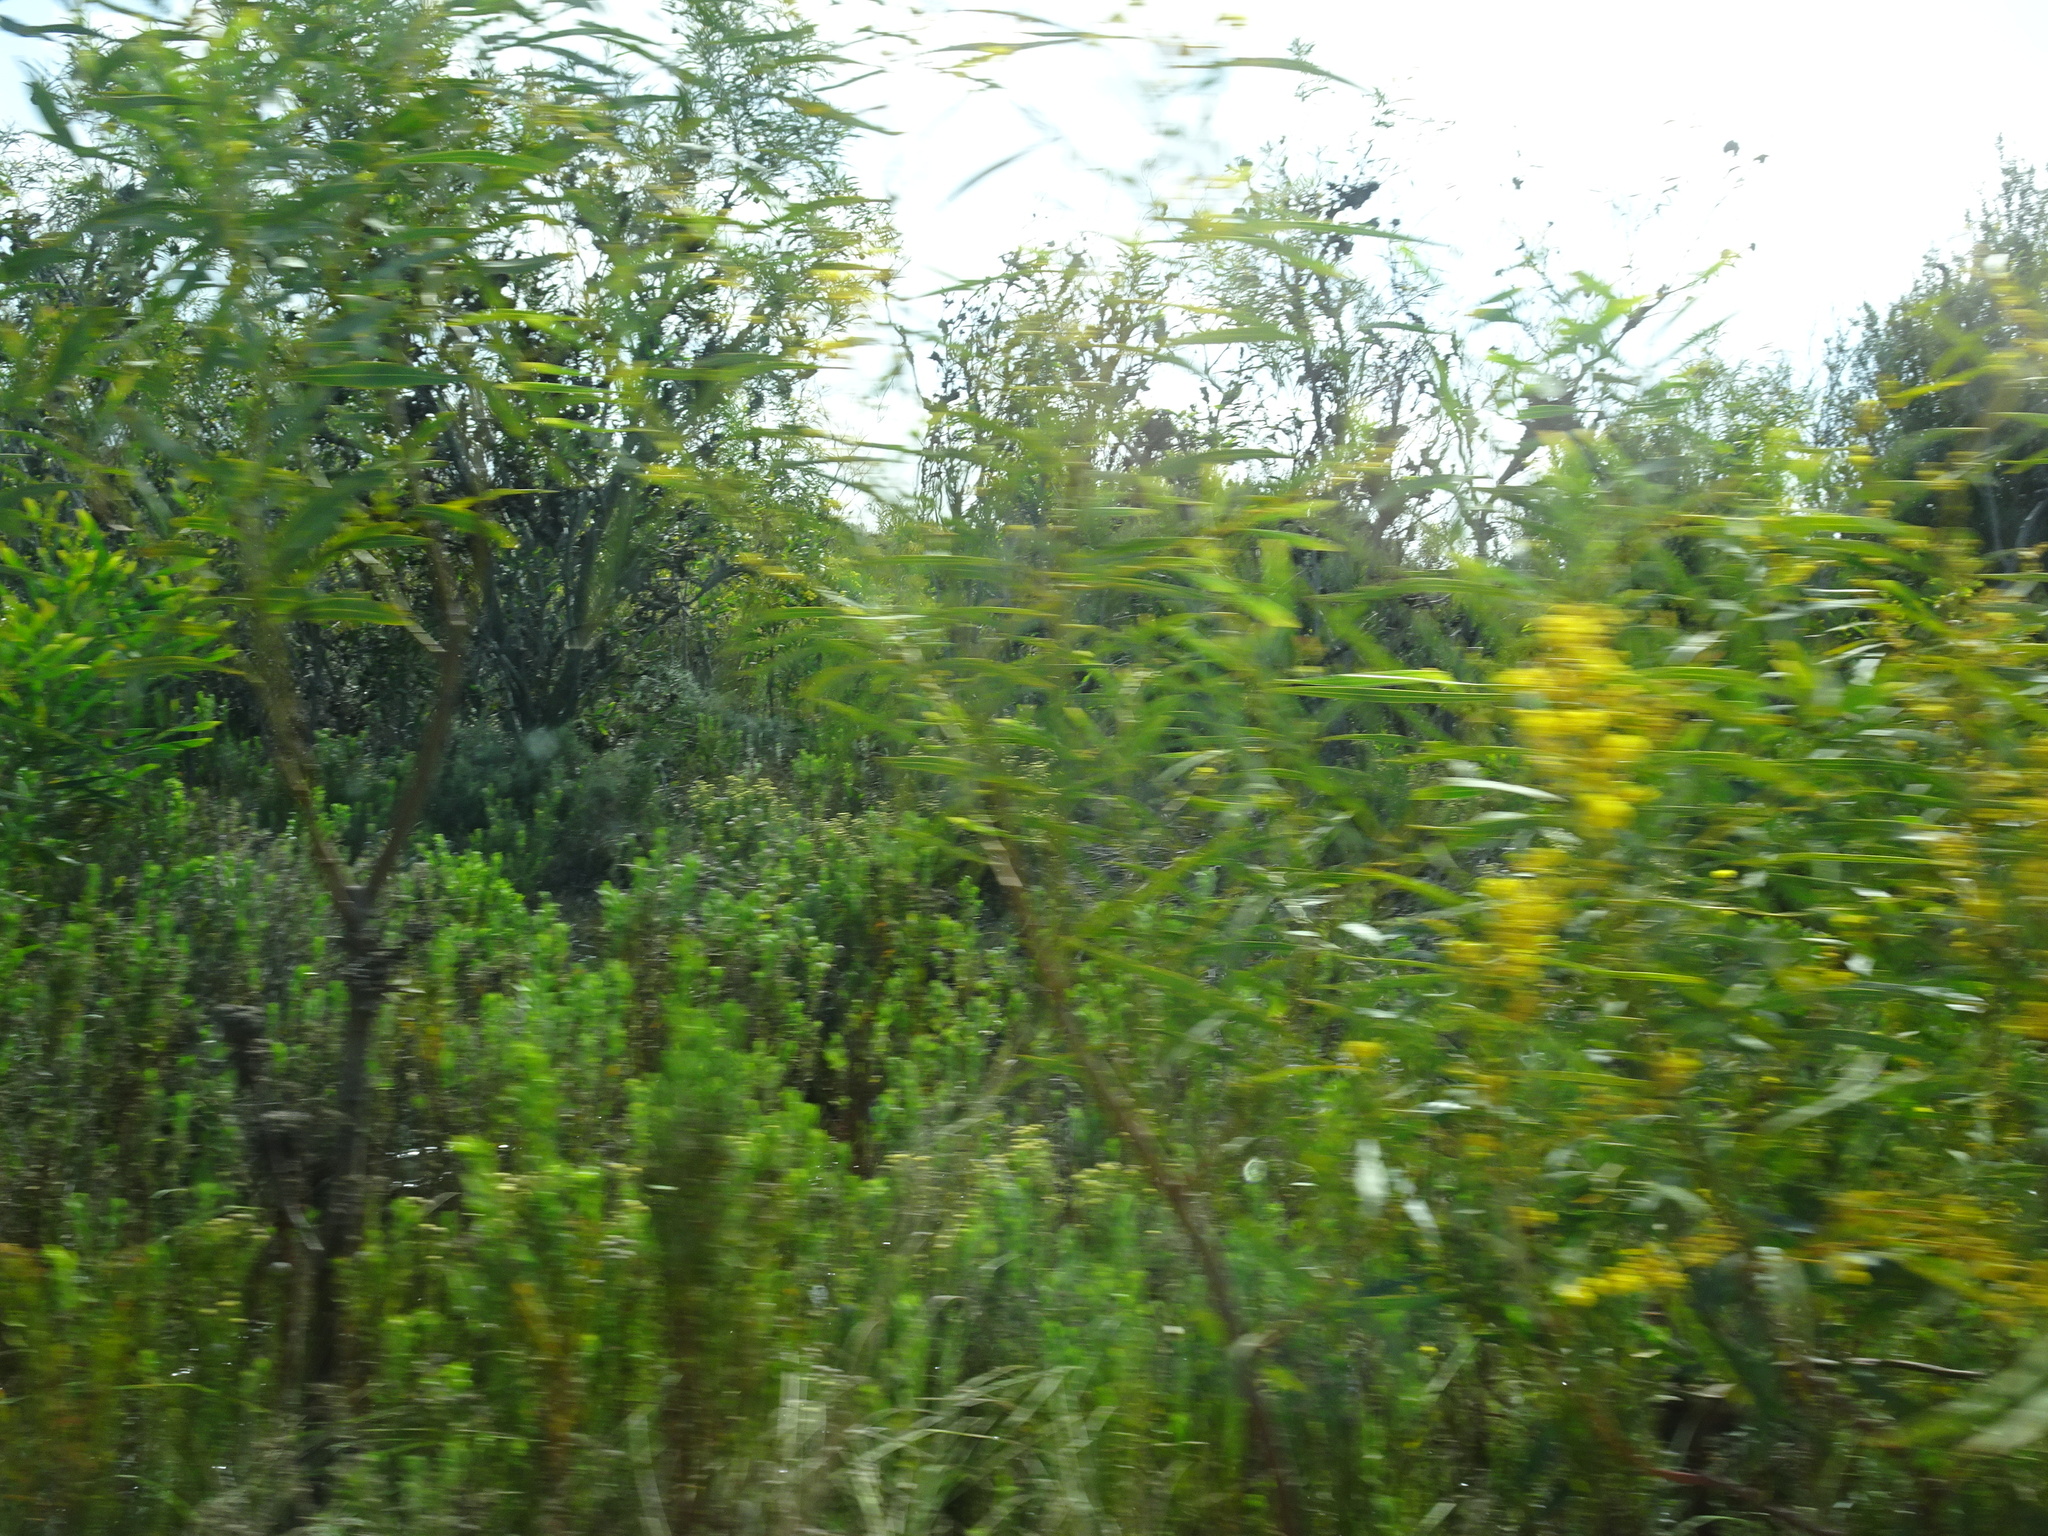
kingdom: Plantae
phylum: Tracheophyta
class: Magnoliopsida
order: Fabales
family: Fabaceae
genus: Acacia
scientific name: Acacia saligna
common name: Orange wattle
